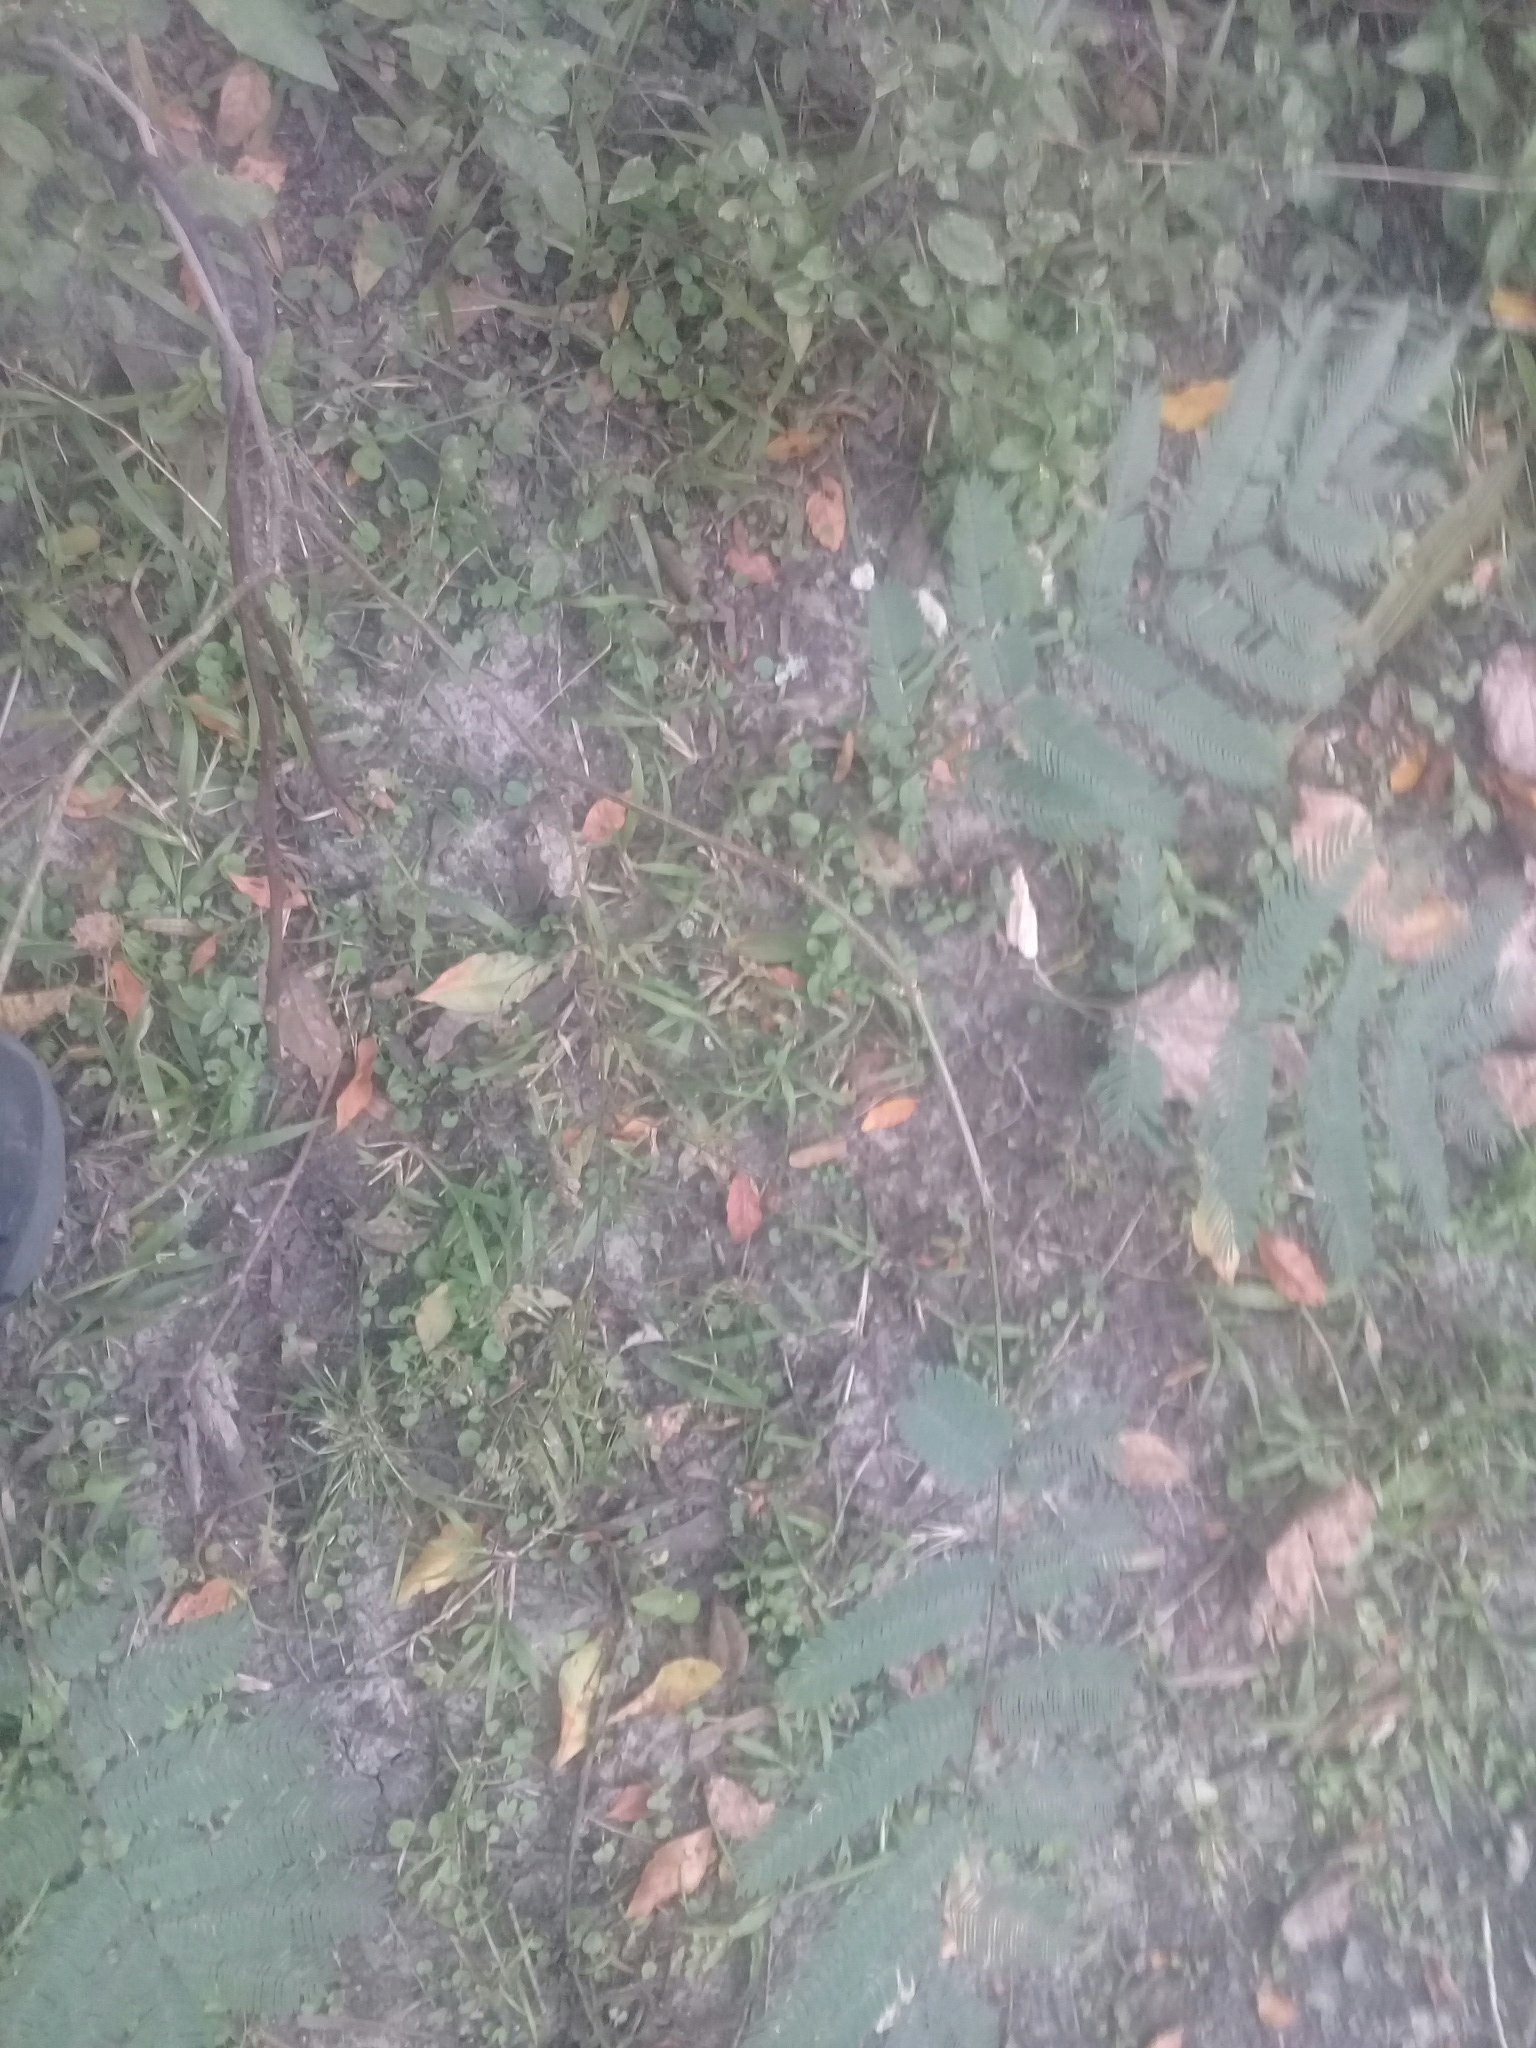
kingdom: Plantae
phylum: Tracheophyta
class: Magnoliopsida
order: Fabales
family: Fabaceae
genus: Senegalia
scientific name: Senegalia bonariensis
